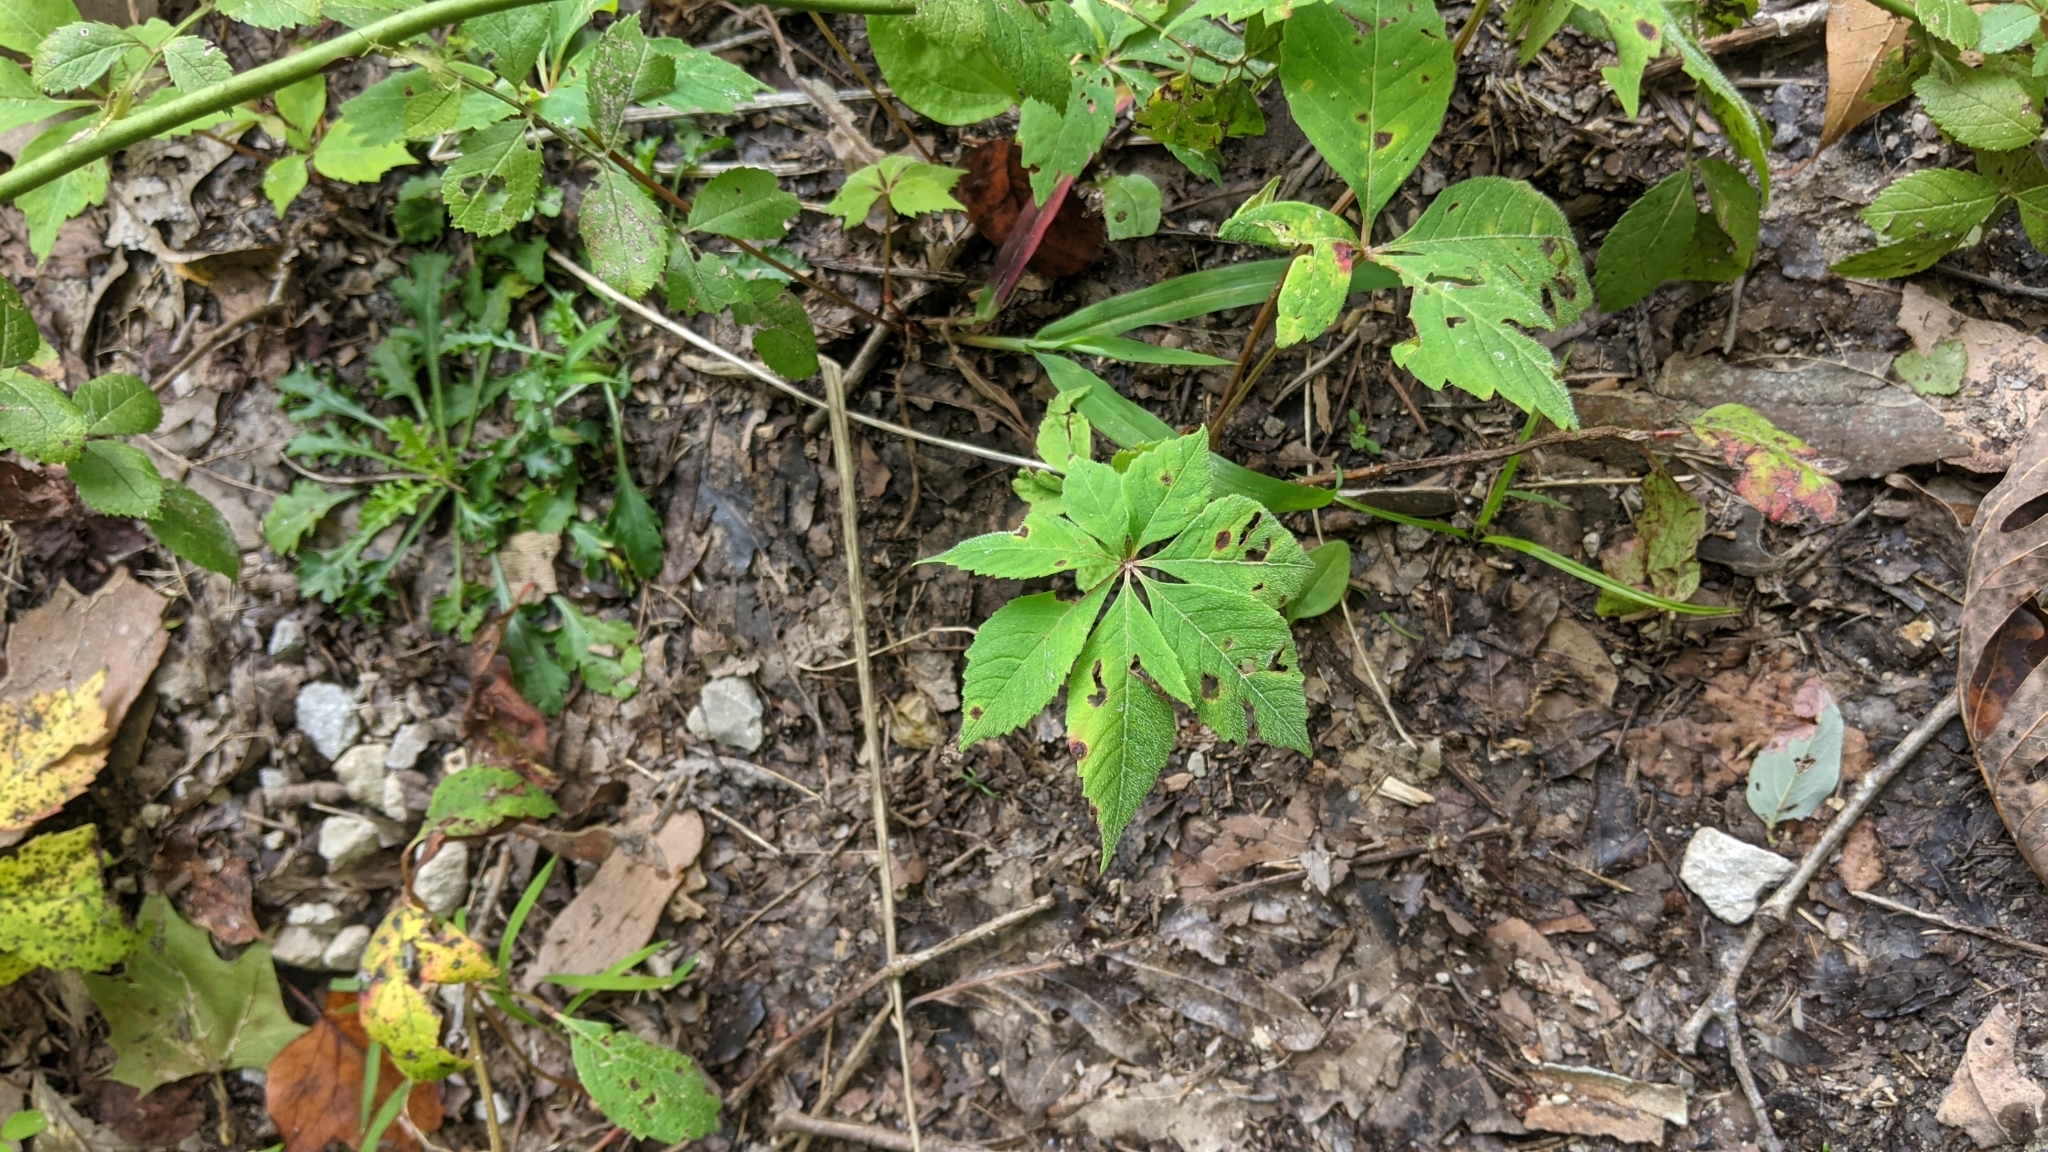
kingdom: Plantae
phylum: Tracheophyta
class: Magnoliopsida
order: Vitales
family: Vitaceae
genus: Parthenocissus
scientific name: Parthenocissus quinquefolia
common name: Virginia-creeper
